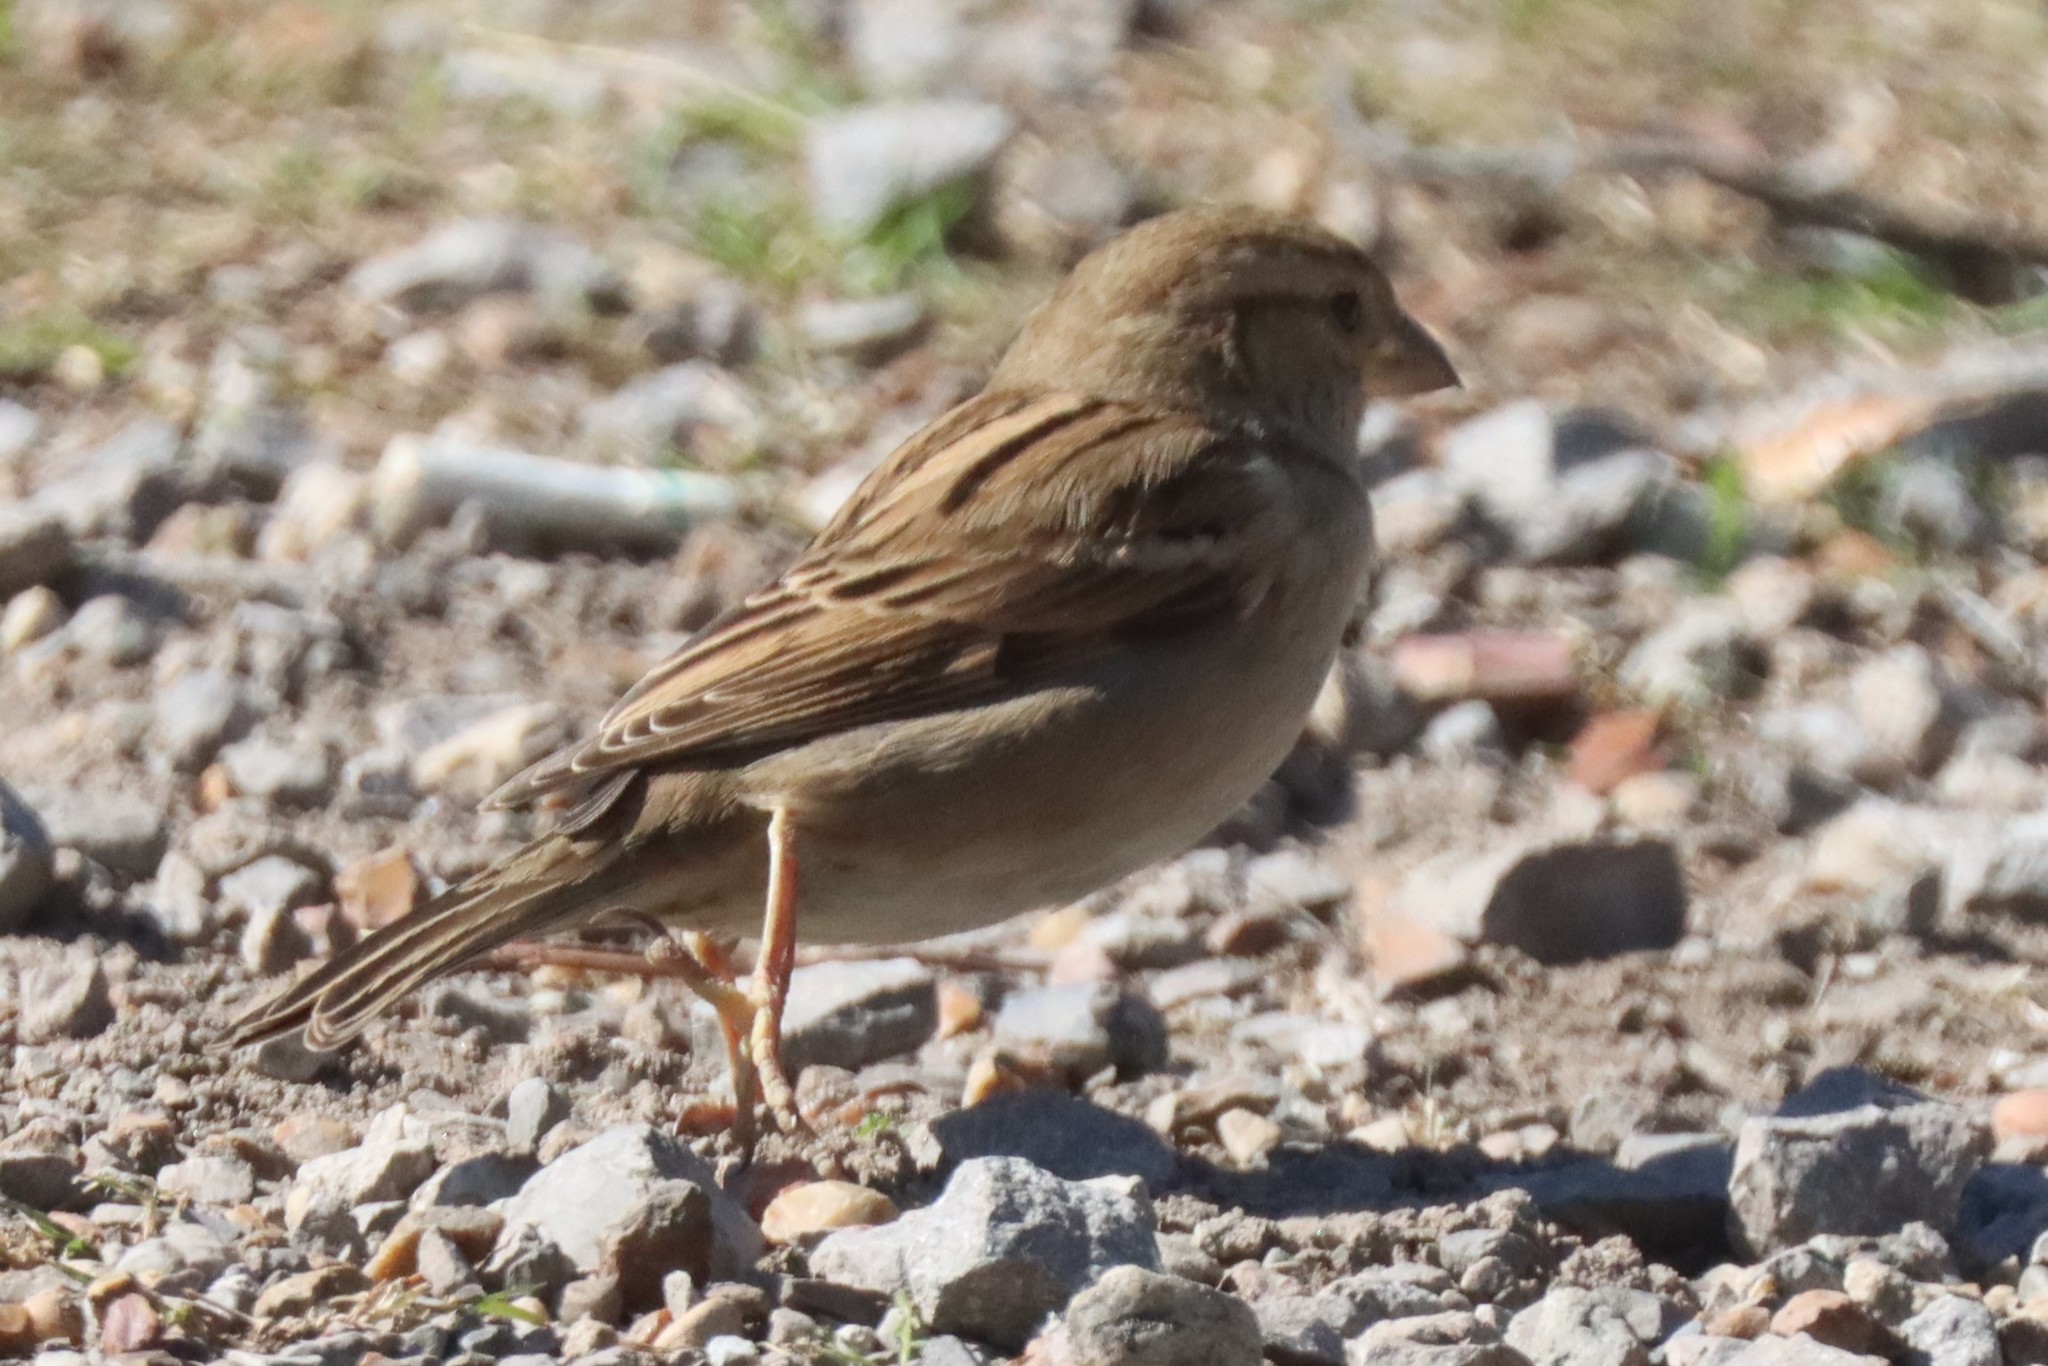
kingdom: Animalia
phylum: Chordata
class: Aves
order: Passeriformes
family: Passeridae
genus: Passer
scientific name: Passer domesticus
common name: House sparrow
